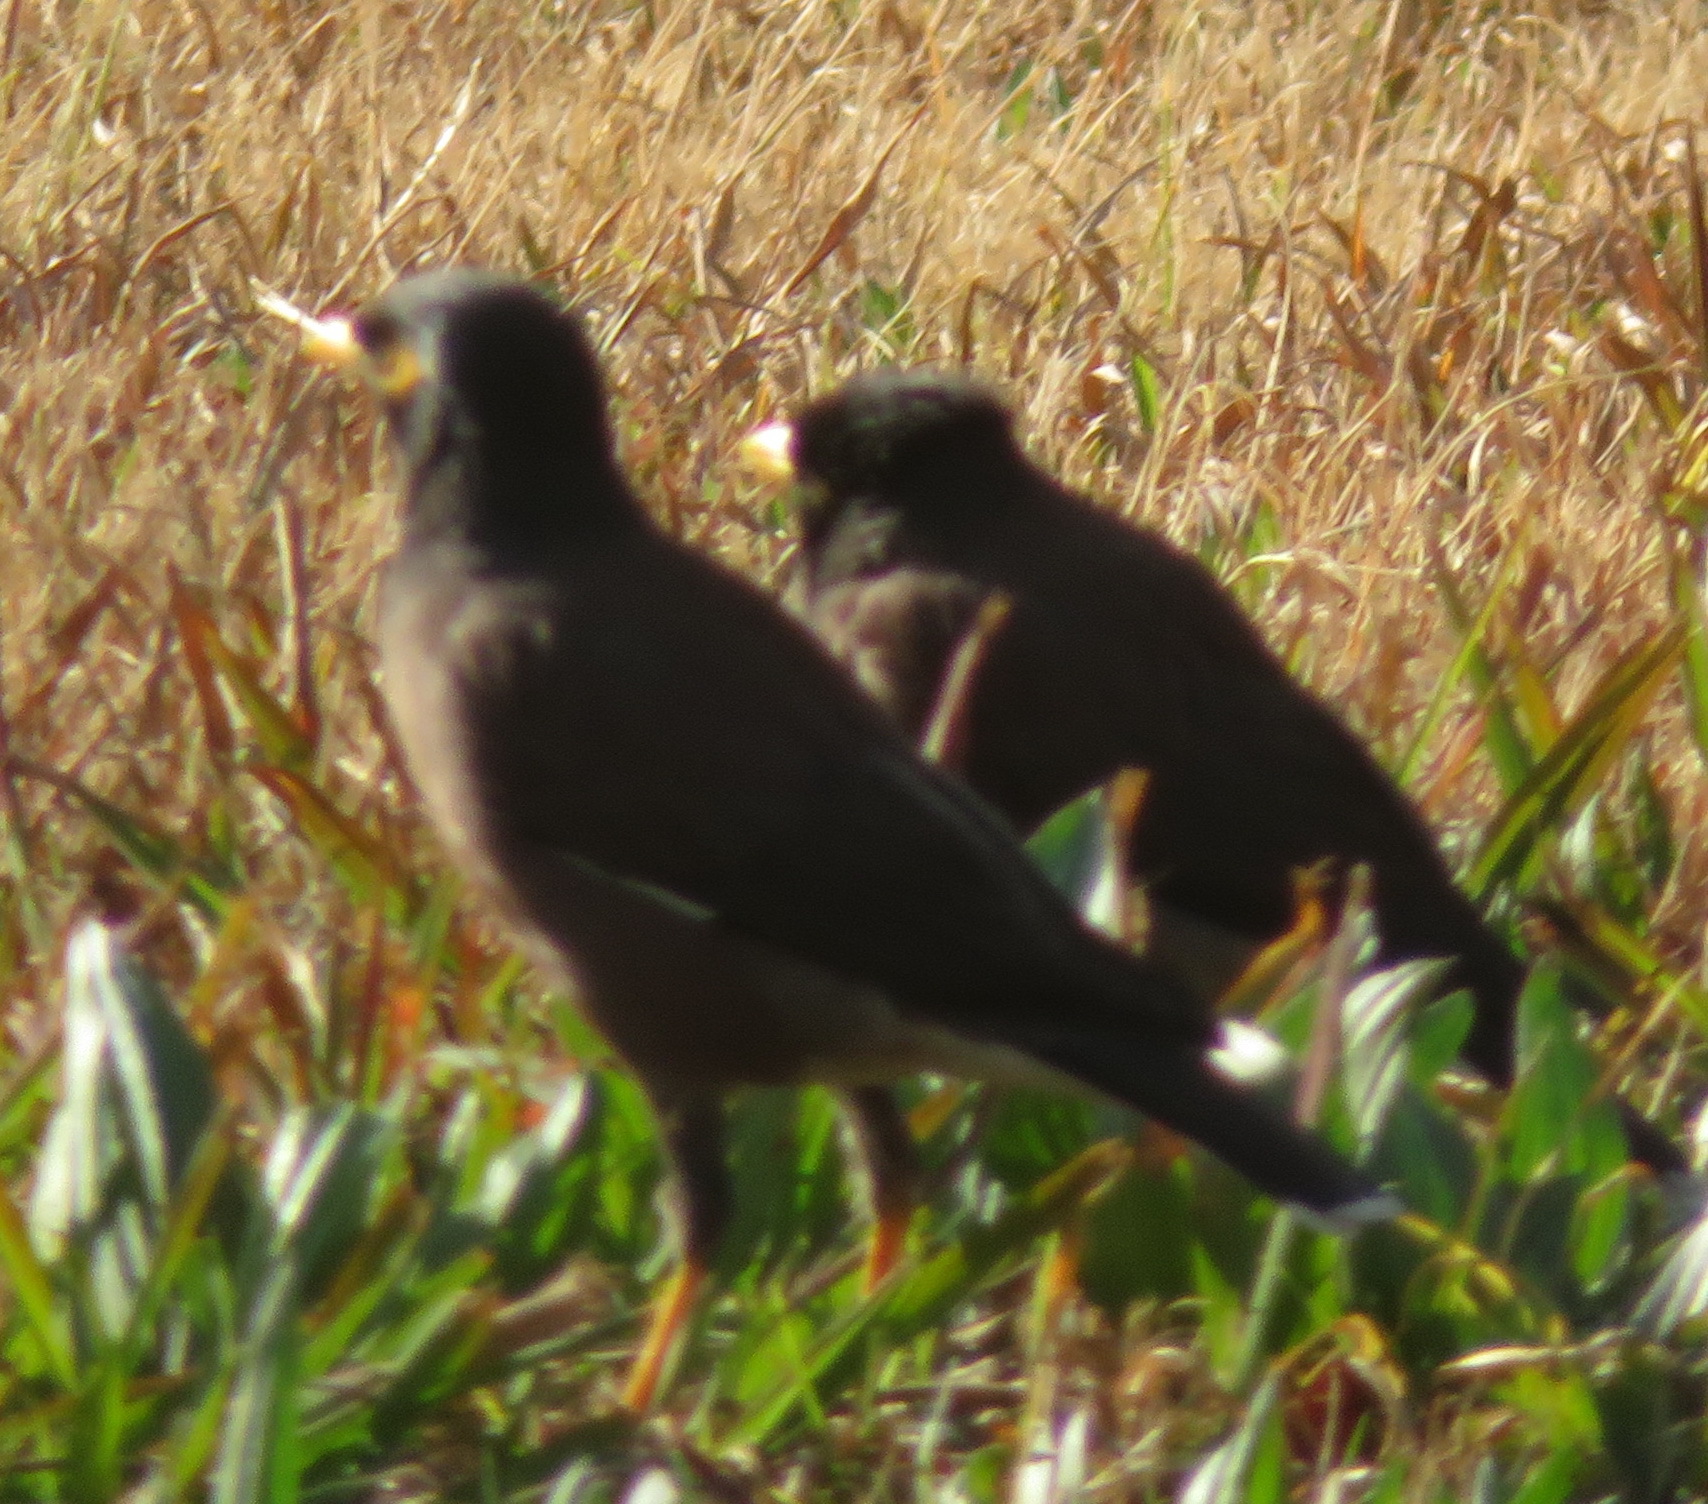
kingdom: Animalia
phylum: Chordata
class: Aves
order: Passeriformes
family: Sturnidae
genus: Acridotheres
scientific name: Acridotheres tristis
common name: Common myna
